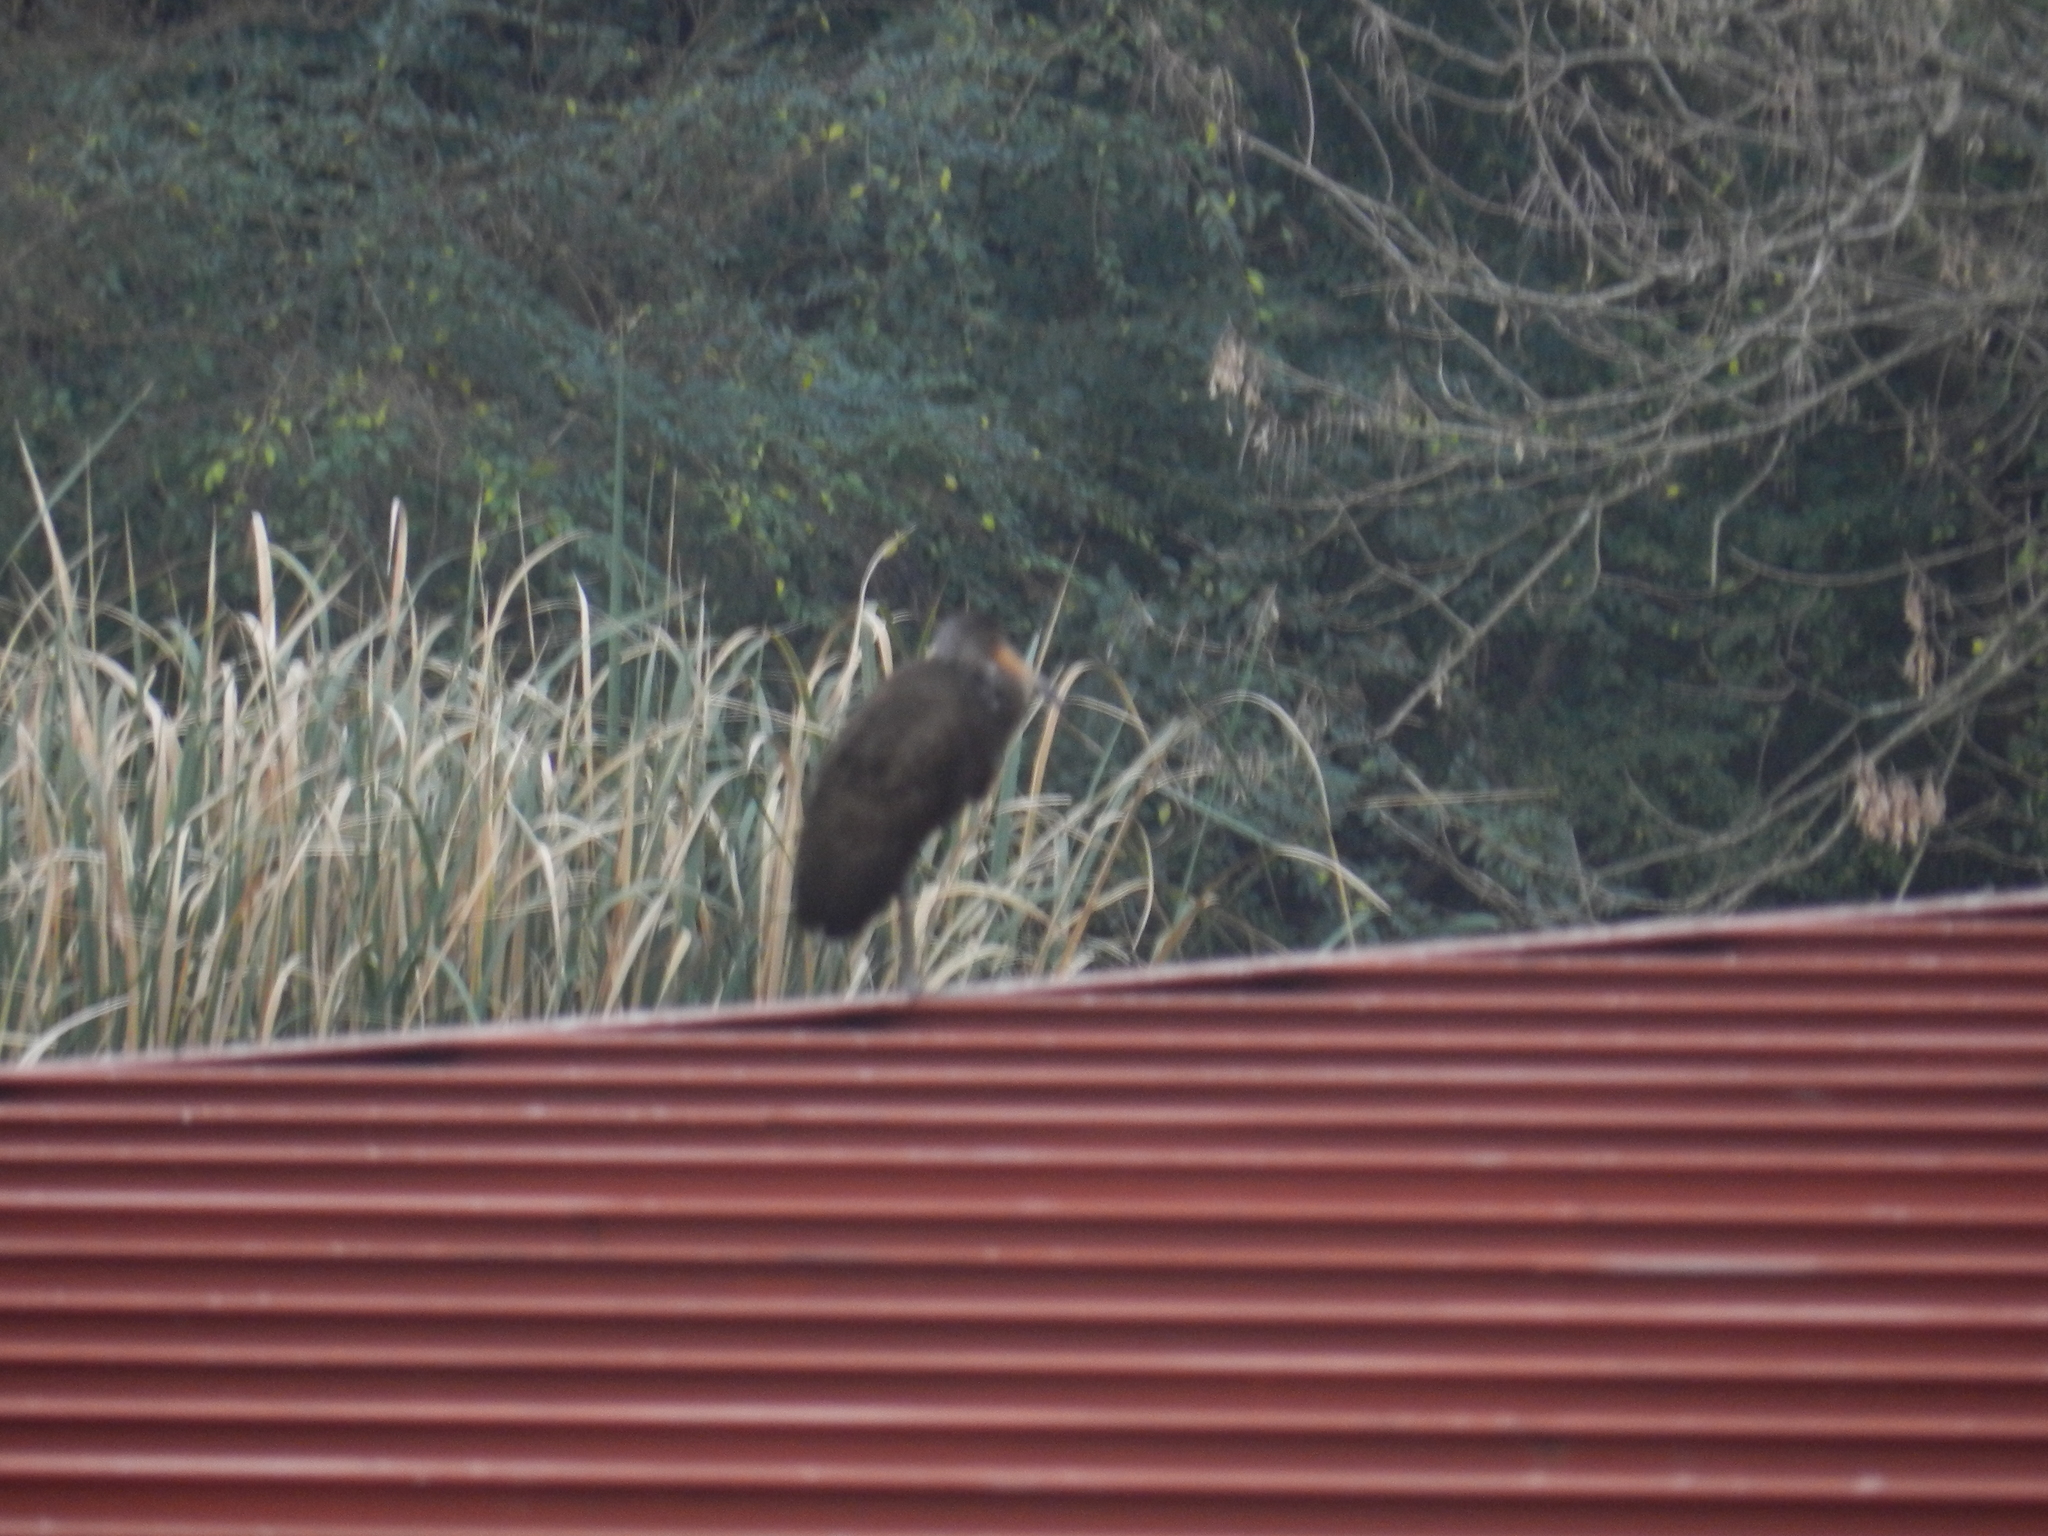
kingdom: Animalia
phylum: Chordata
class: Aves
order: Gruiformes
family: Aramidae
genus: Aramus
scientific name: Aramus guarauna
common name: Limpkin
